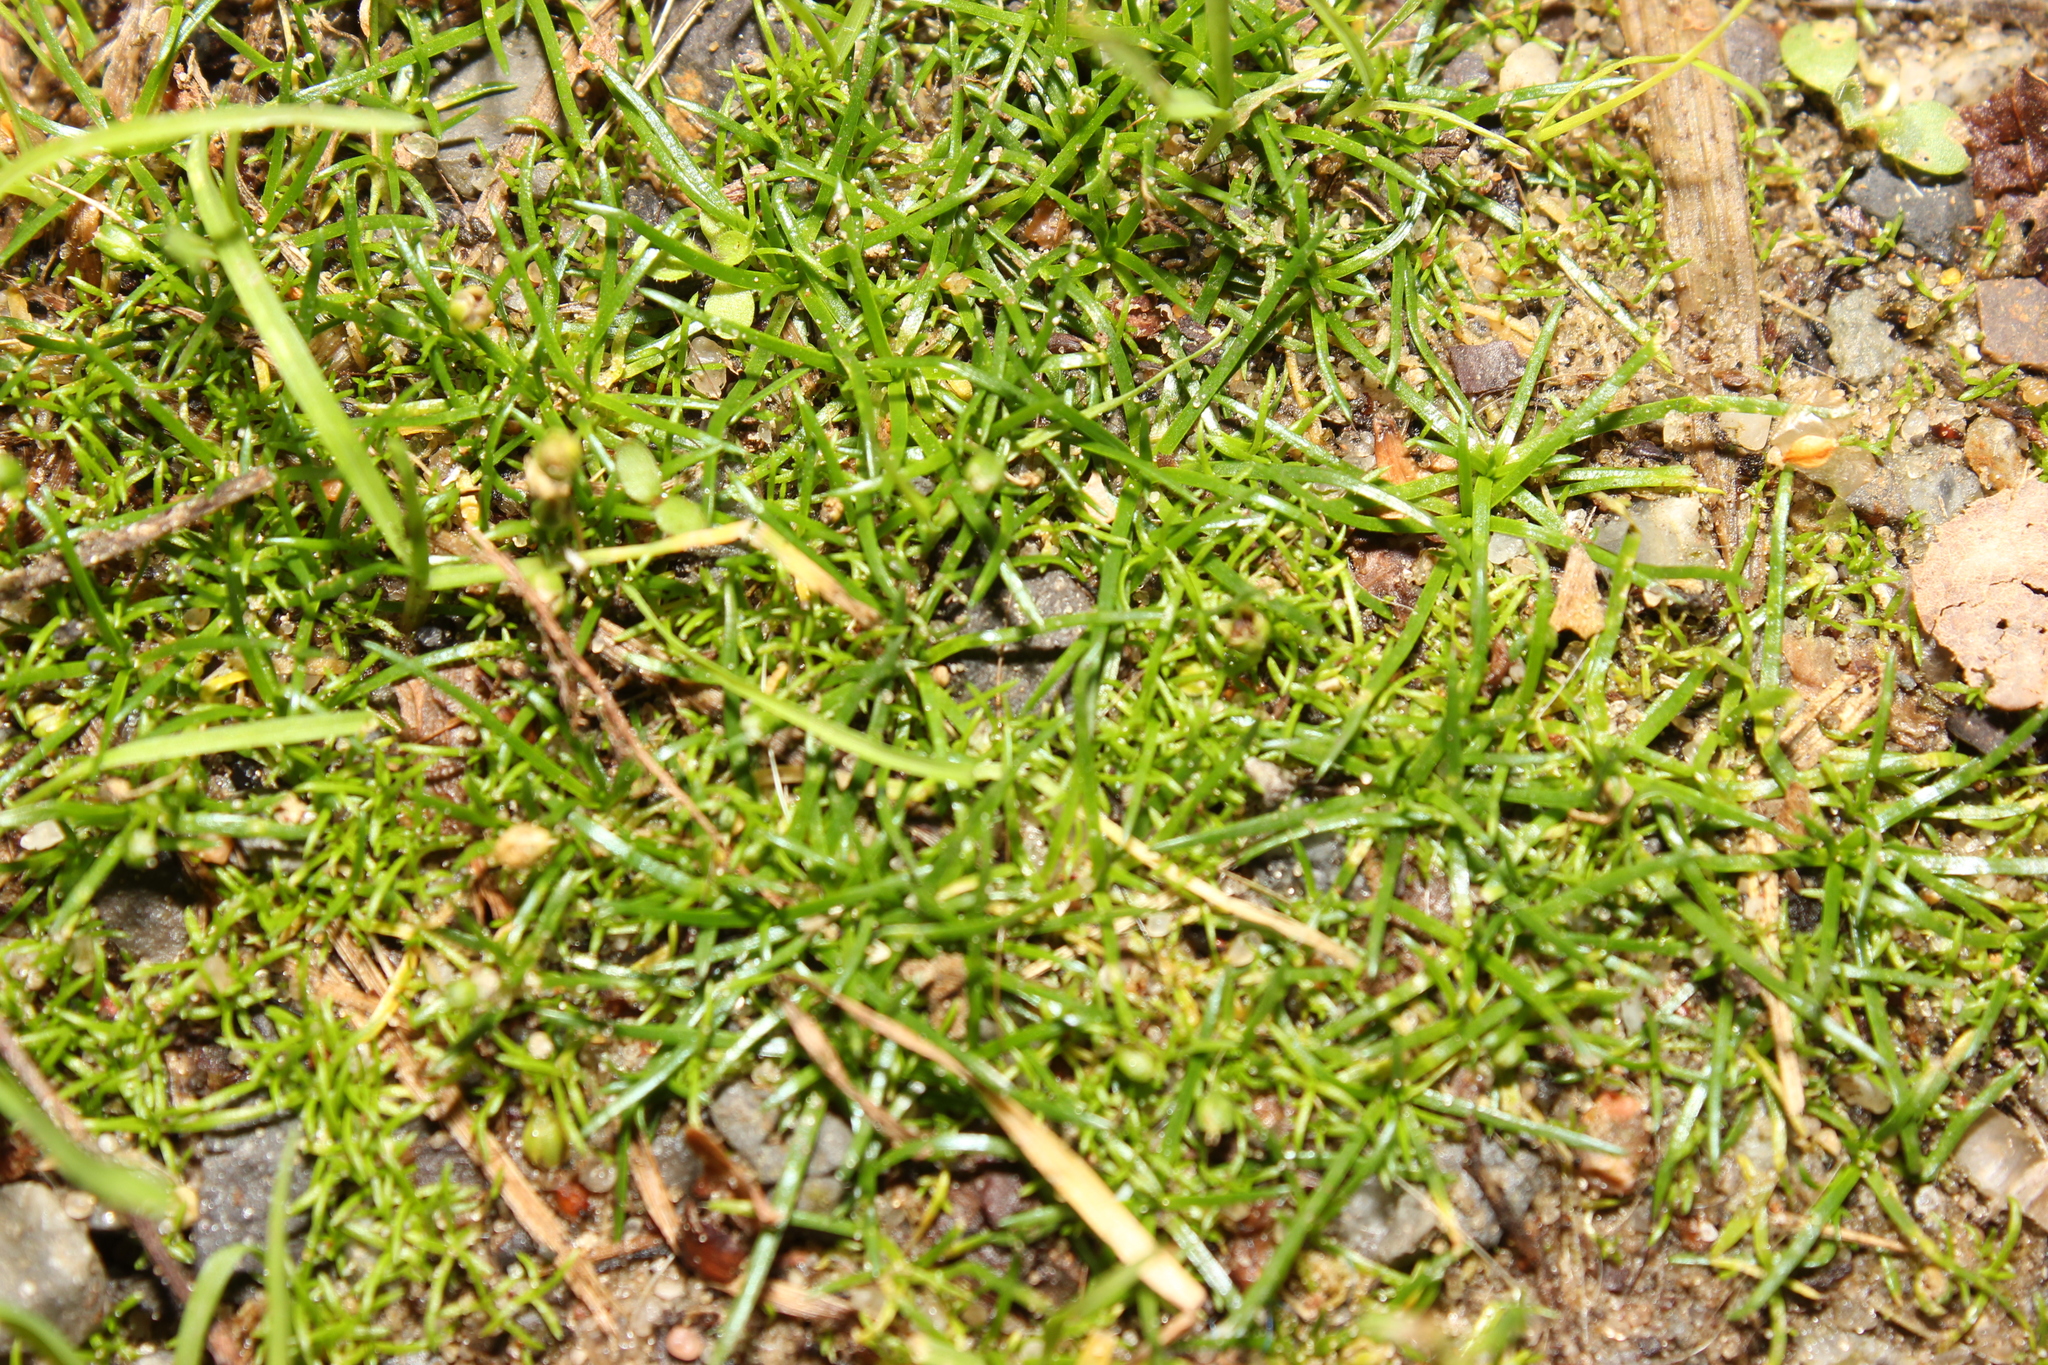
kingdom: Plantae
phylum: Tracheophyta
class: Magnoliopsida
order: Caryophyllales
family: Caryophyllaceae
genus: Sagina
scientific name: Sagina procumbens
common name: Procumbent pearlwort
